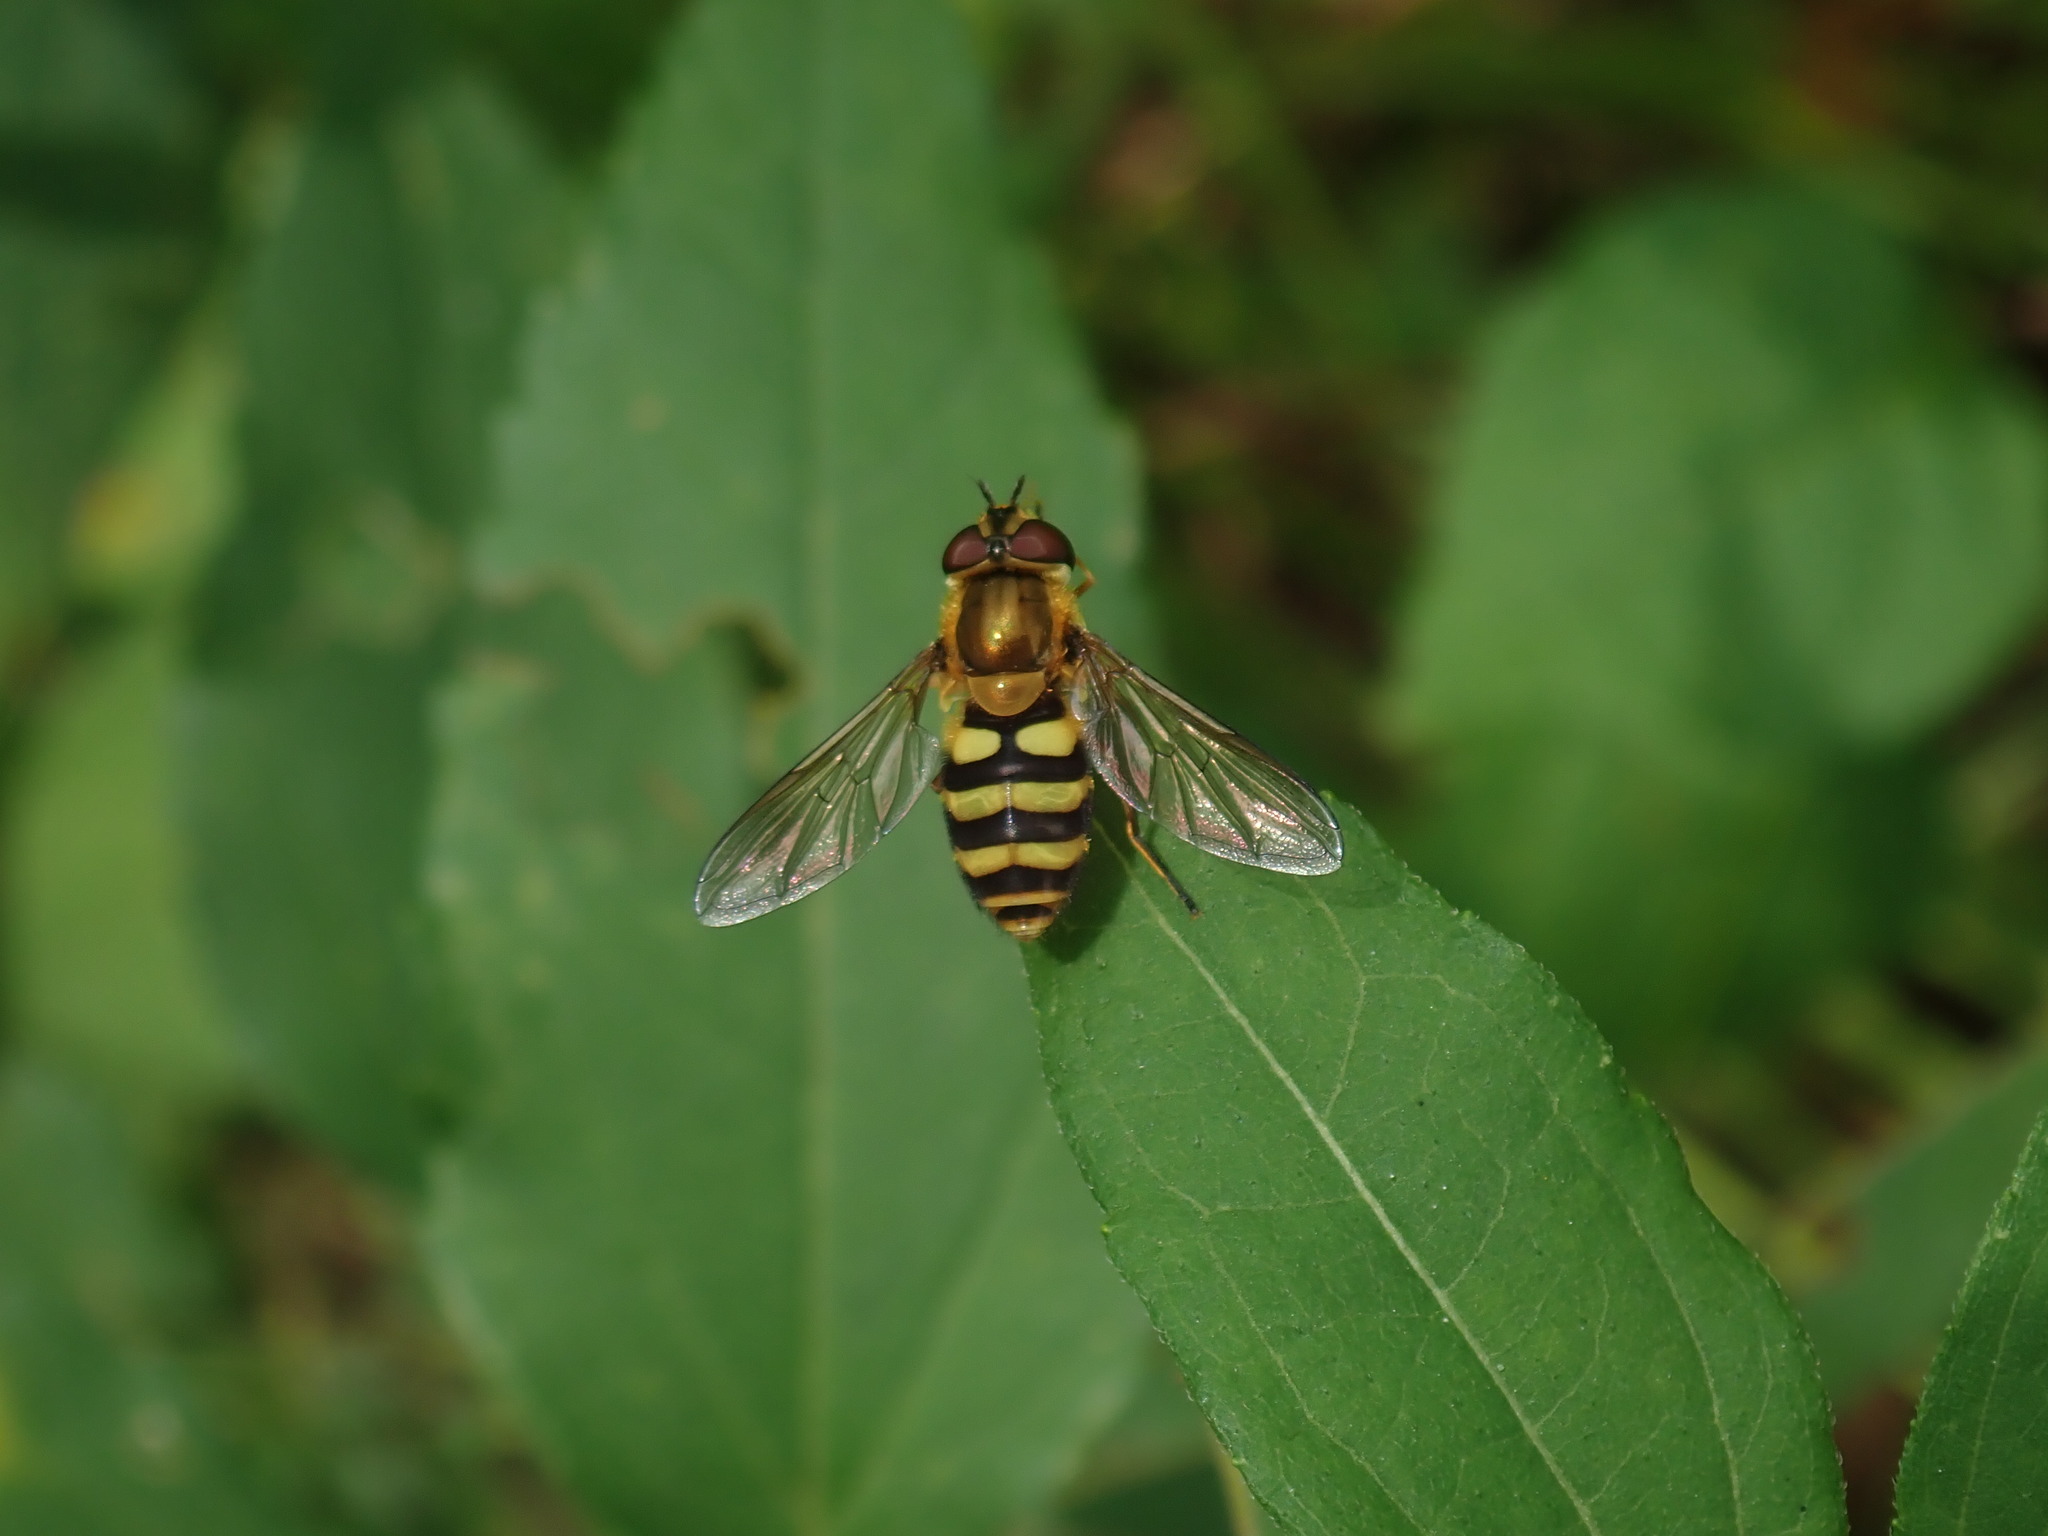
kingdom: Animalia
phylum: Arthropoda
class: Insecta
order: Diptera
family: Syrphidae
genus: Syrphus
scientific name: Syrphus
